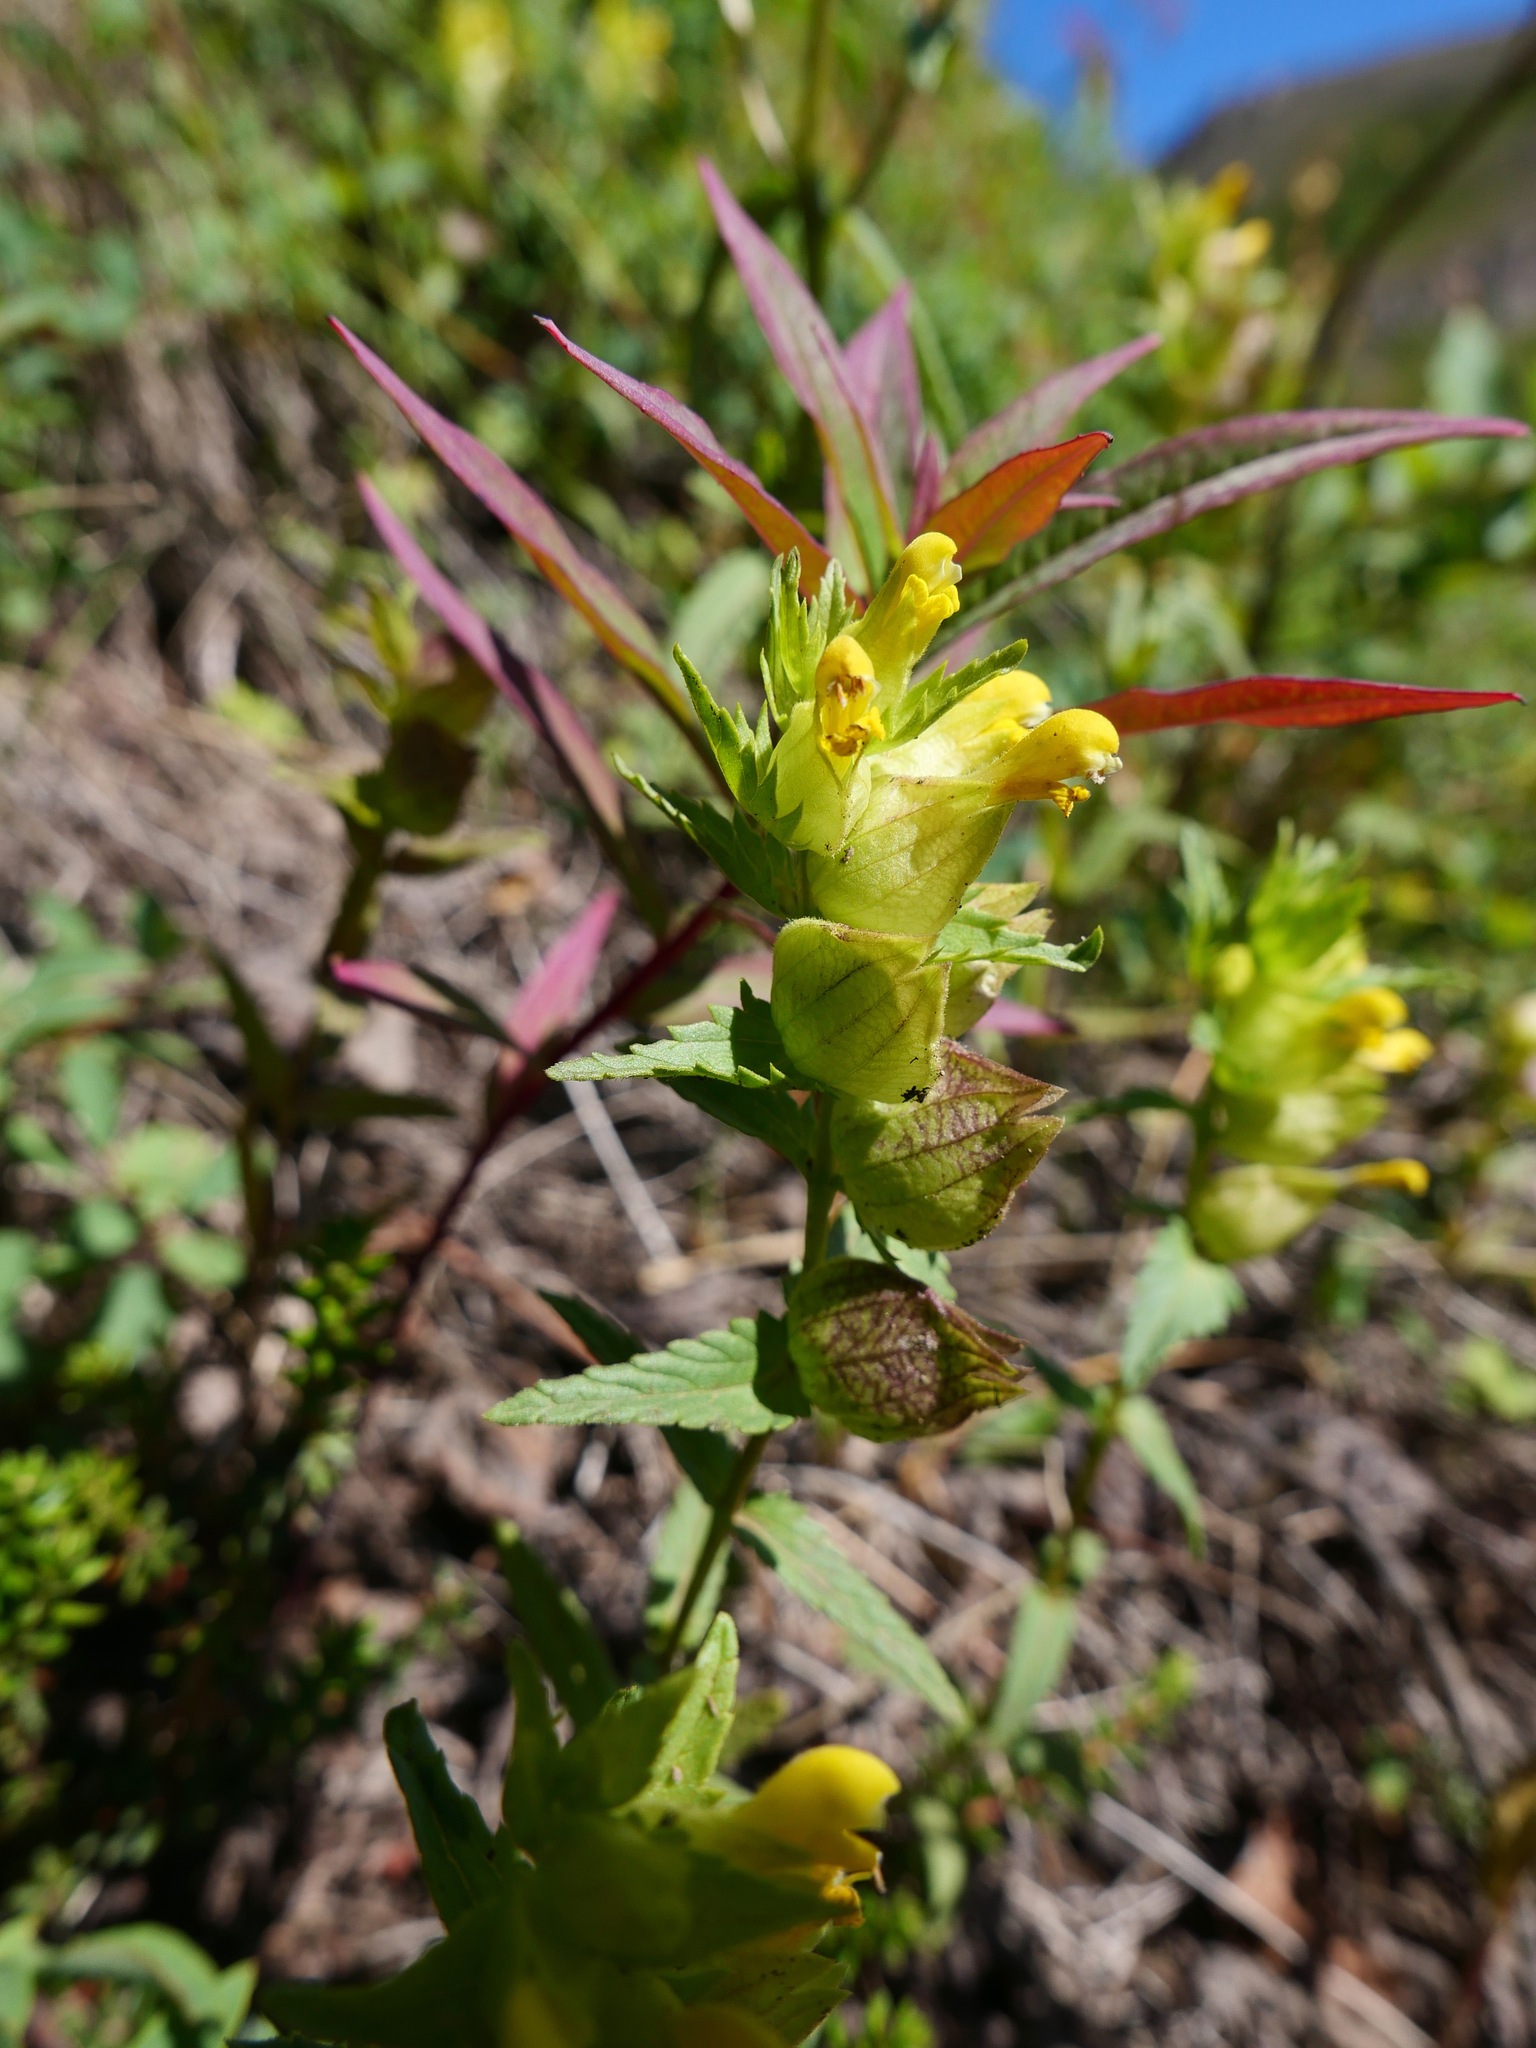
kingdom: Plantae
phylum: Tracheophyta
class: Magnoliopsida
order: Lamiales
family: Orobanchaceae
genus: Rhinanthus
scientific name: Rhinanthus minor
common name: Yellow-rattle
